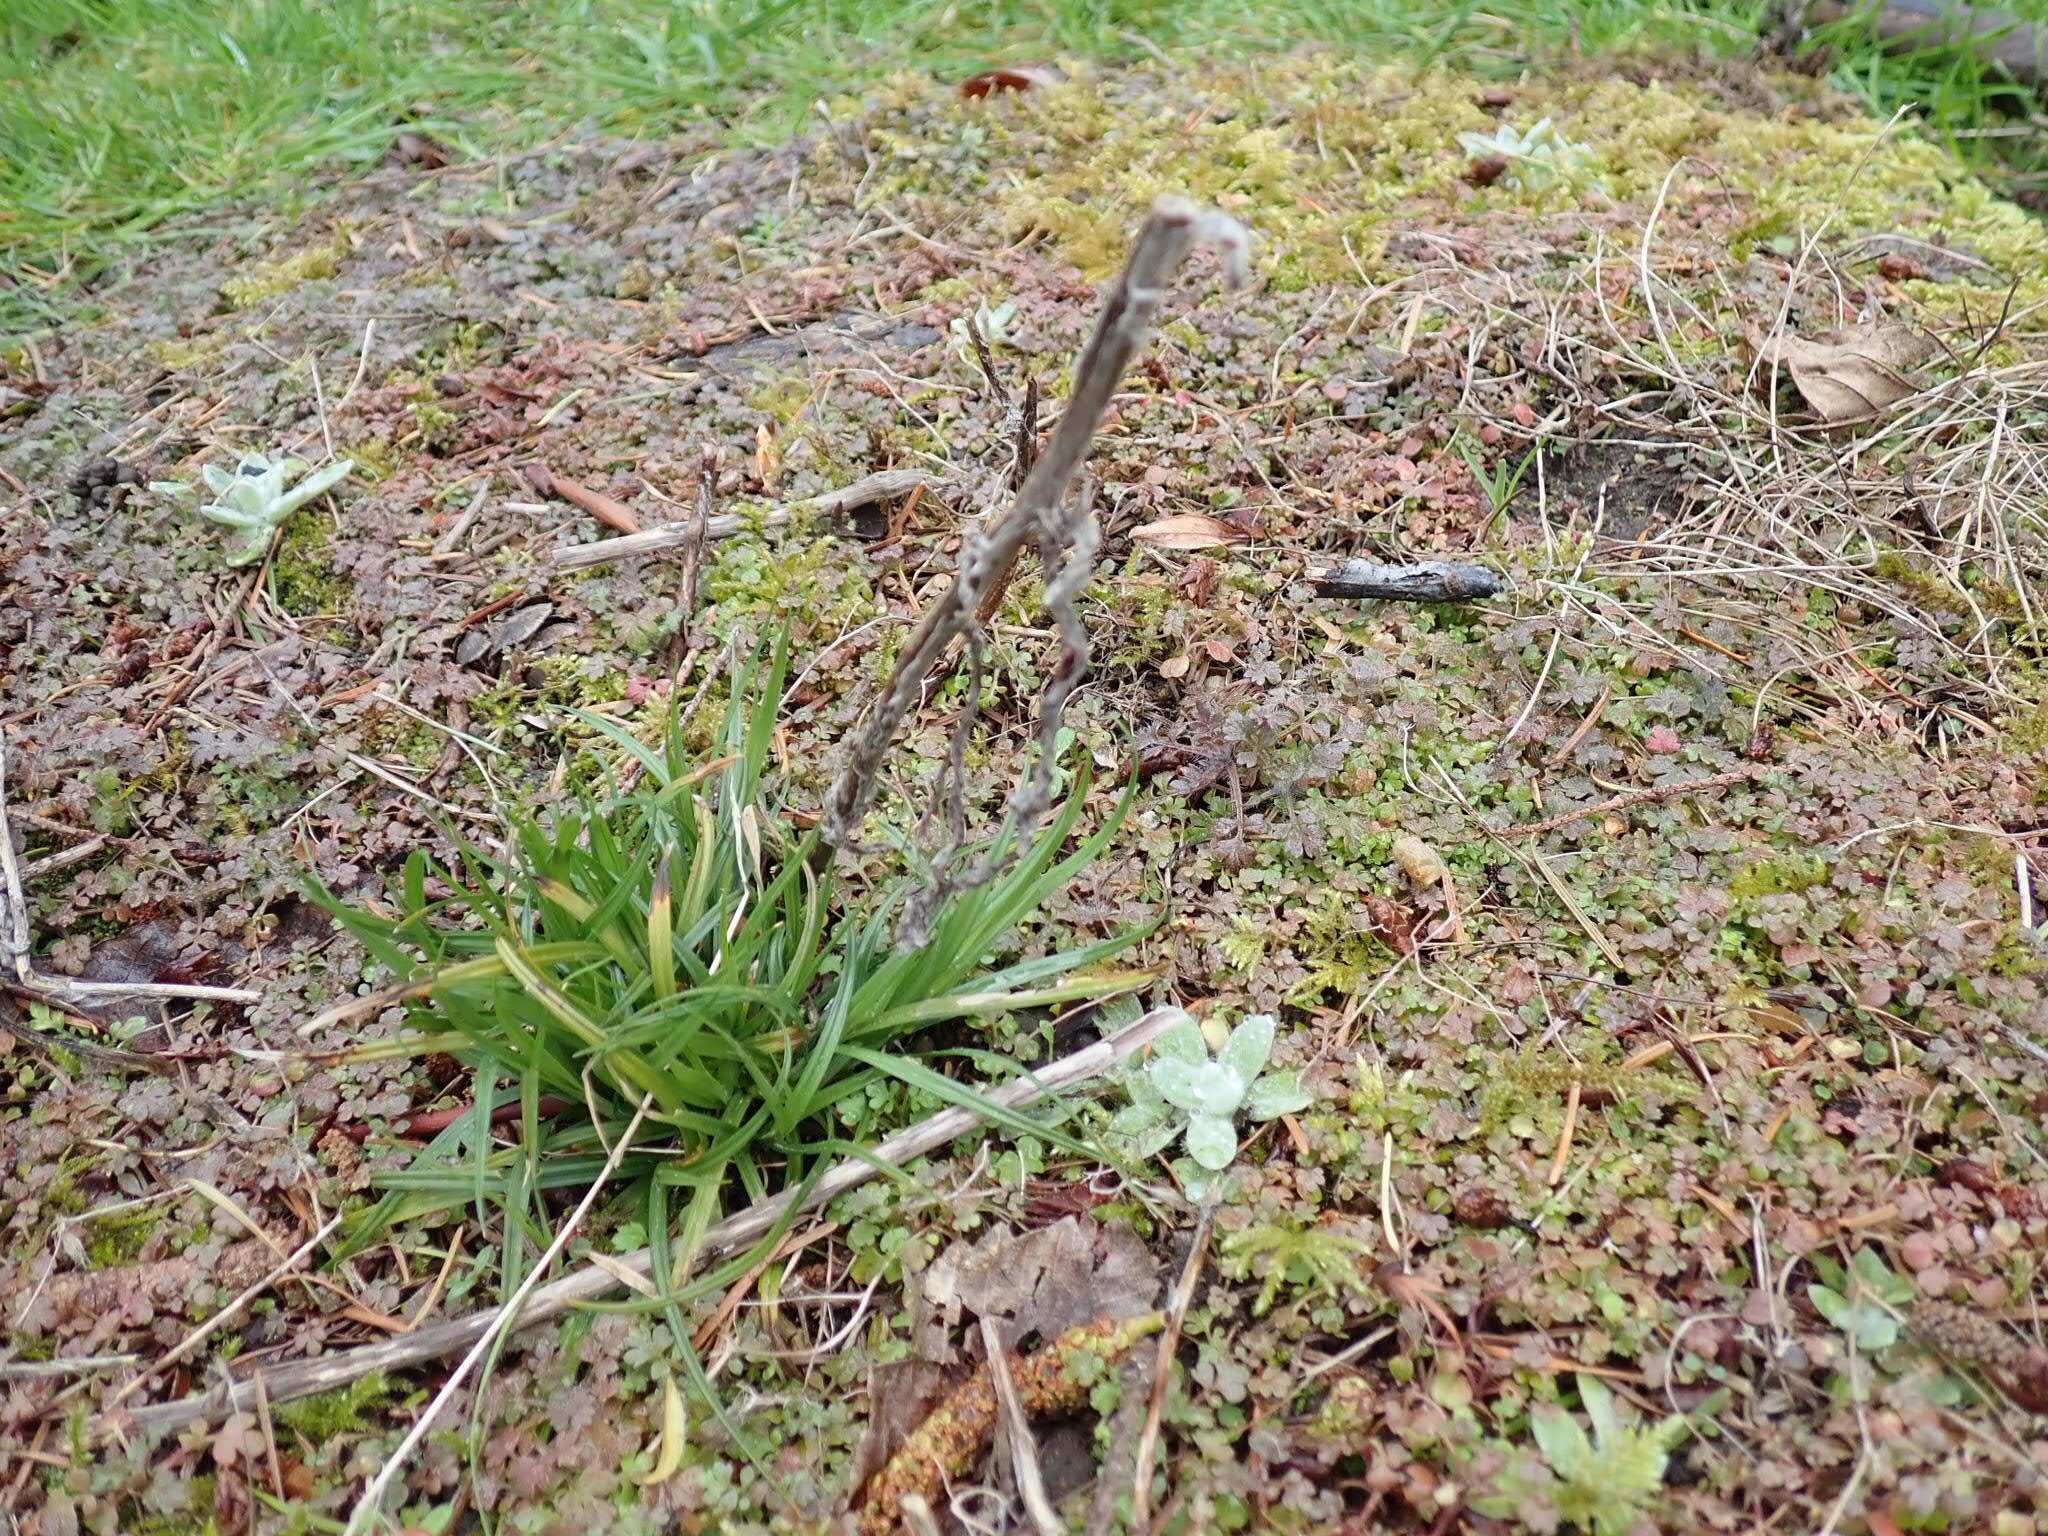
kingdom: Plantae
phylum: Tracheophyta
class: Liliopsida
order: Poales
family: Cyperaceae
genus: Carex
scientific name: Carex leptopoda
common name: Short-scale sedge
